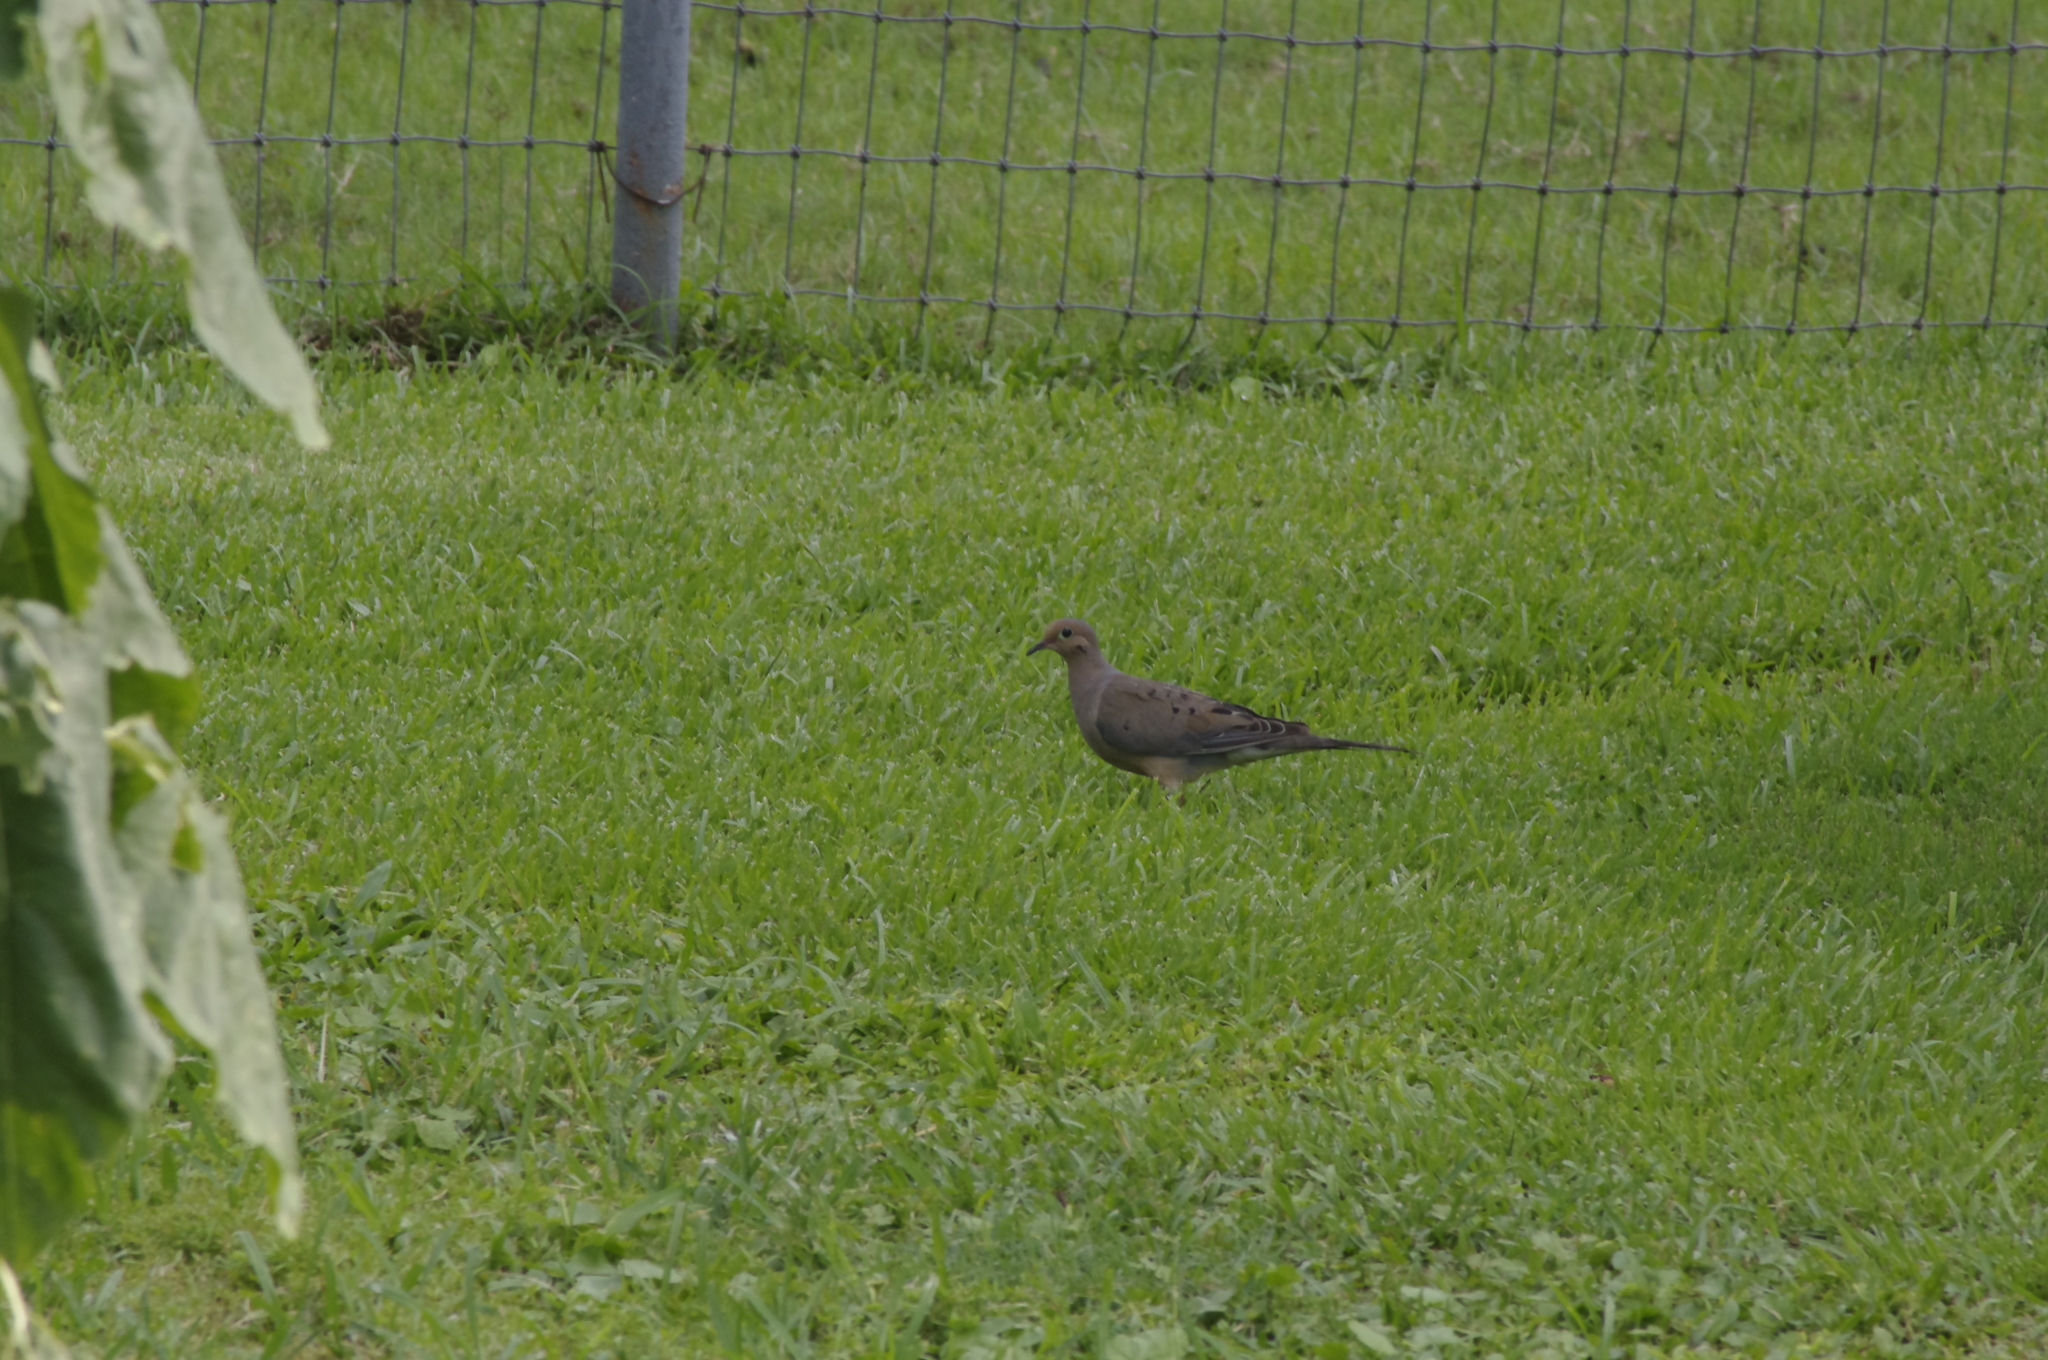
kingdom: Animalia
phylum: Chordata
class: Aves
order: Columbiformes
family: Columbidae
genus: Zenaida
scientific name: Zenaida macroura
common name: Mourning dove
